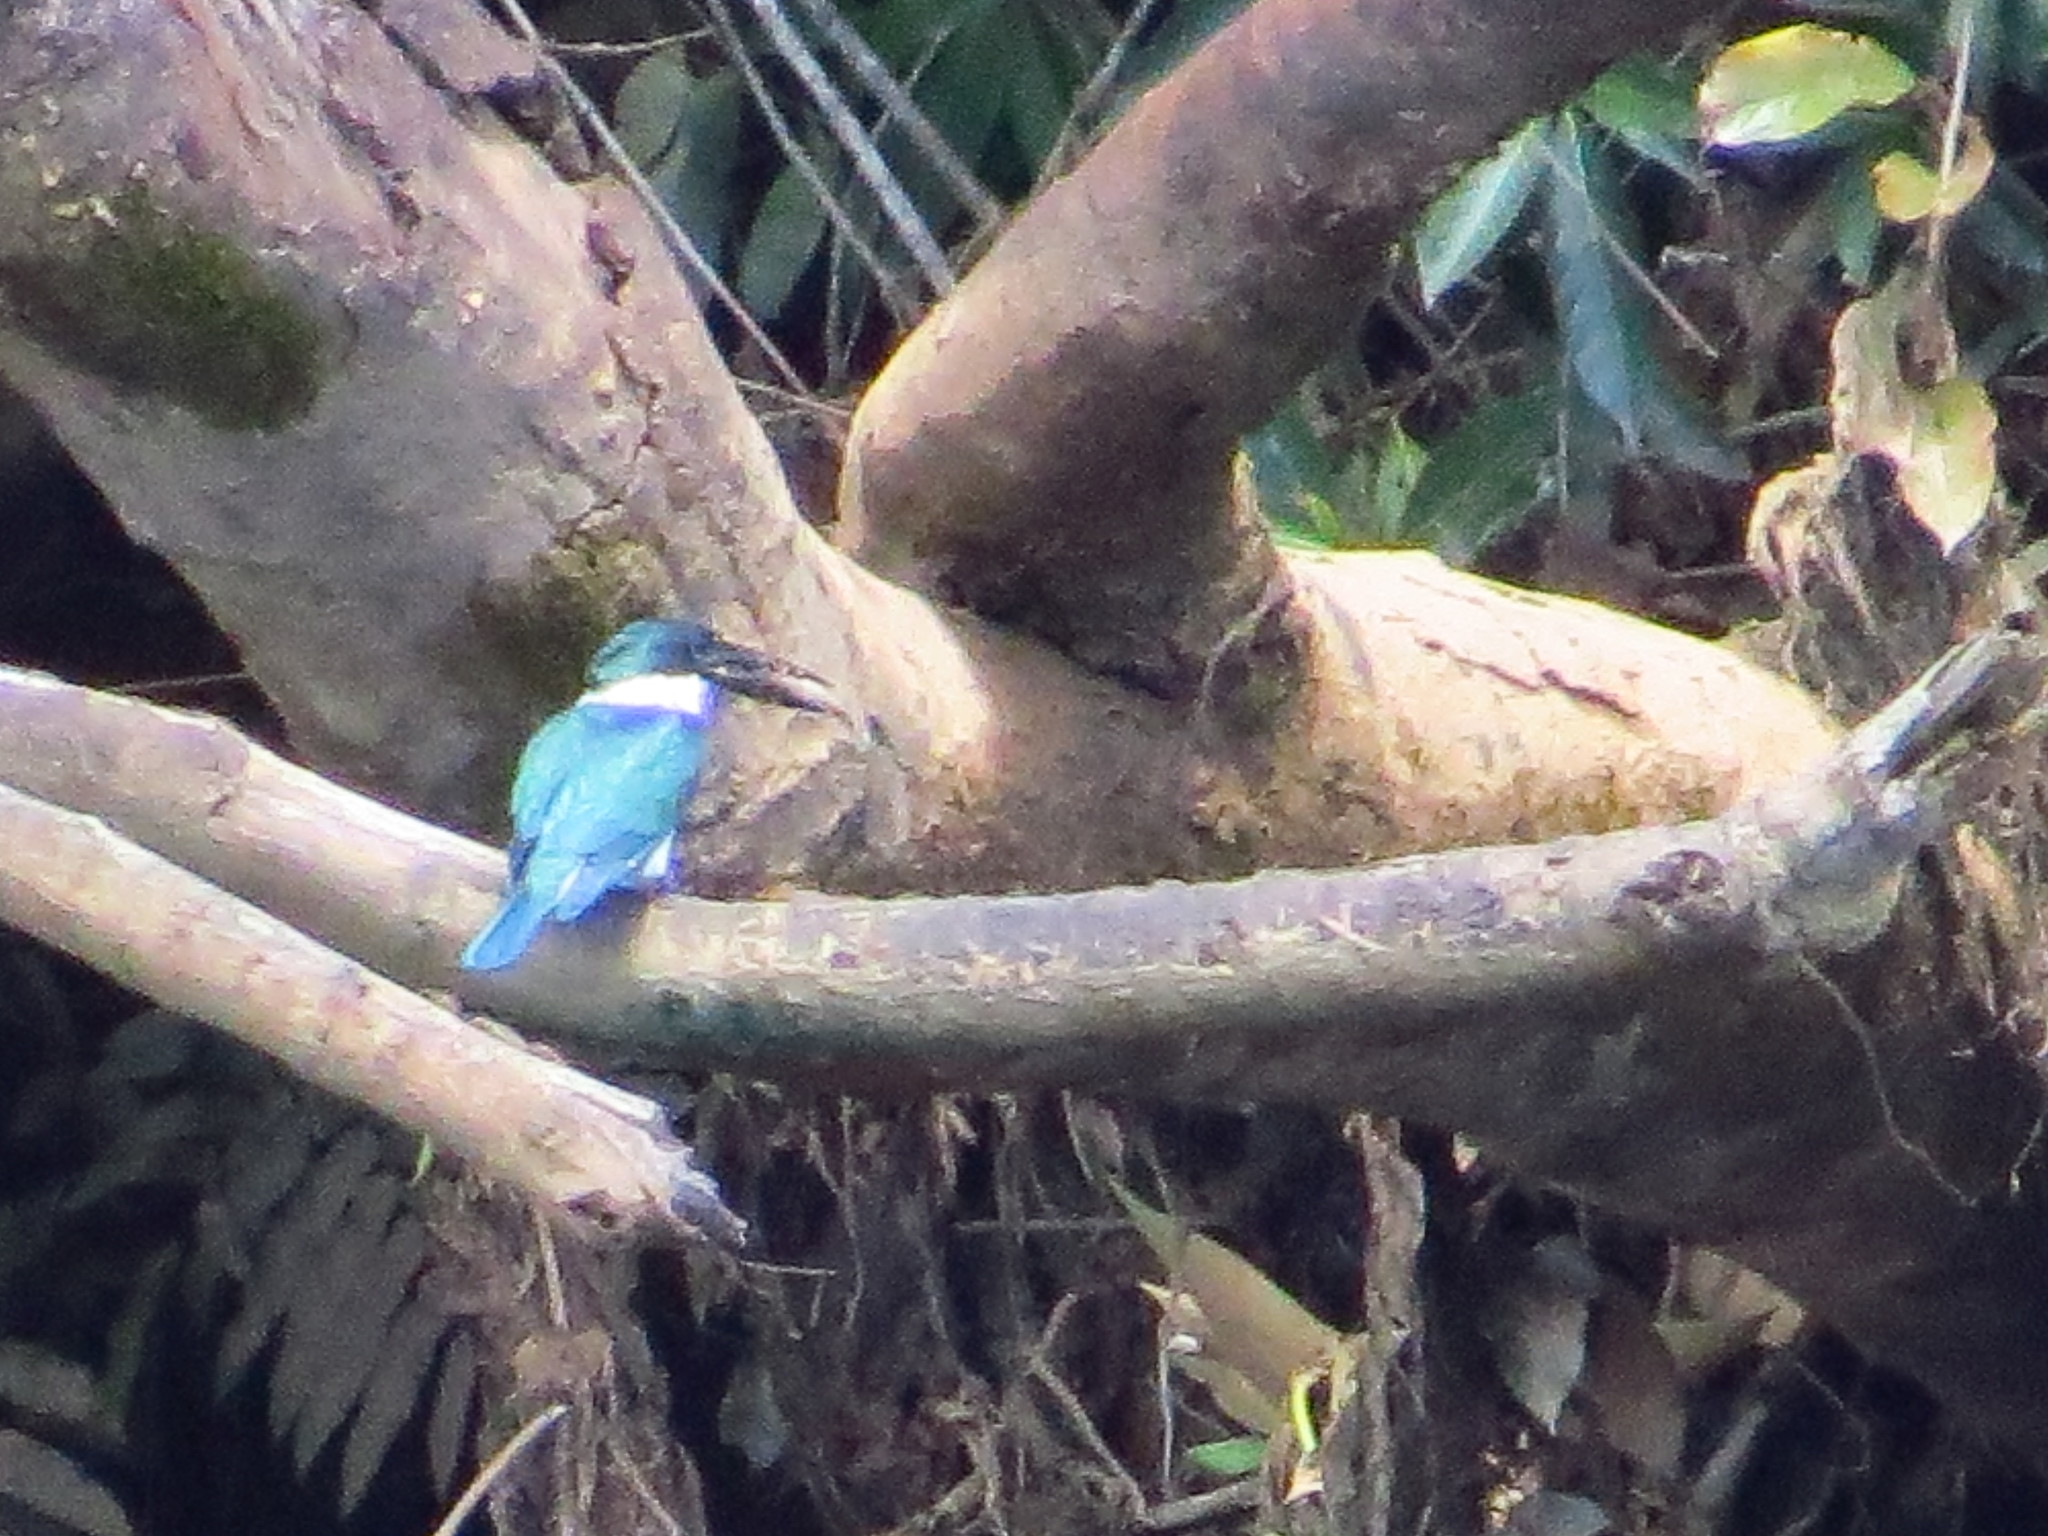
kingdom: Animalia
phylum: Chordata
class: Aves
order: Coraciiformes
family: Alcedinidae
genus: Chloroceryle
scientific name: Chloroceryle amazona
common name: Amazon kingfisher
